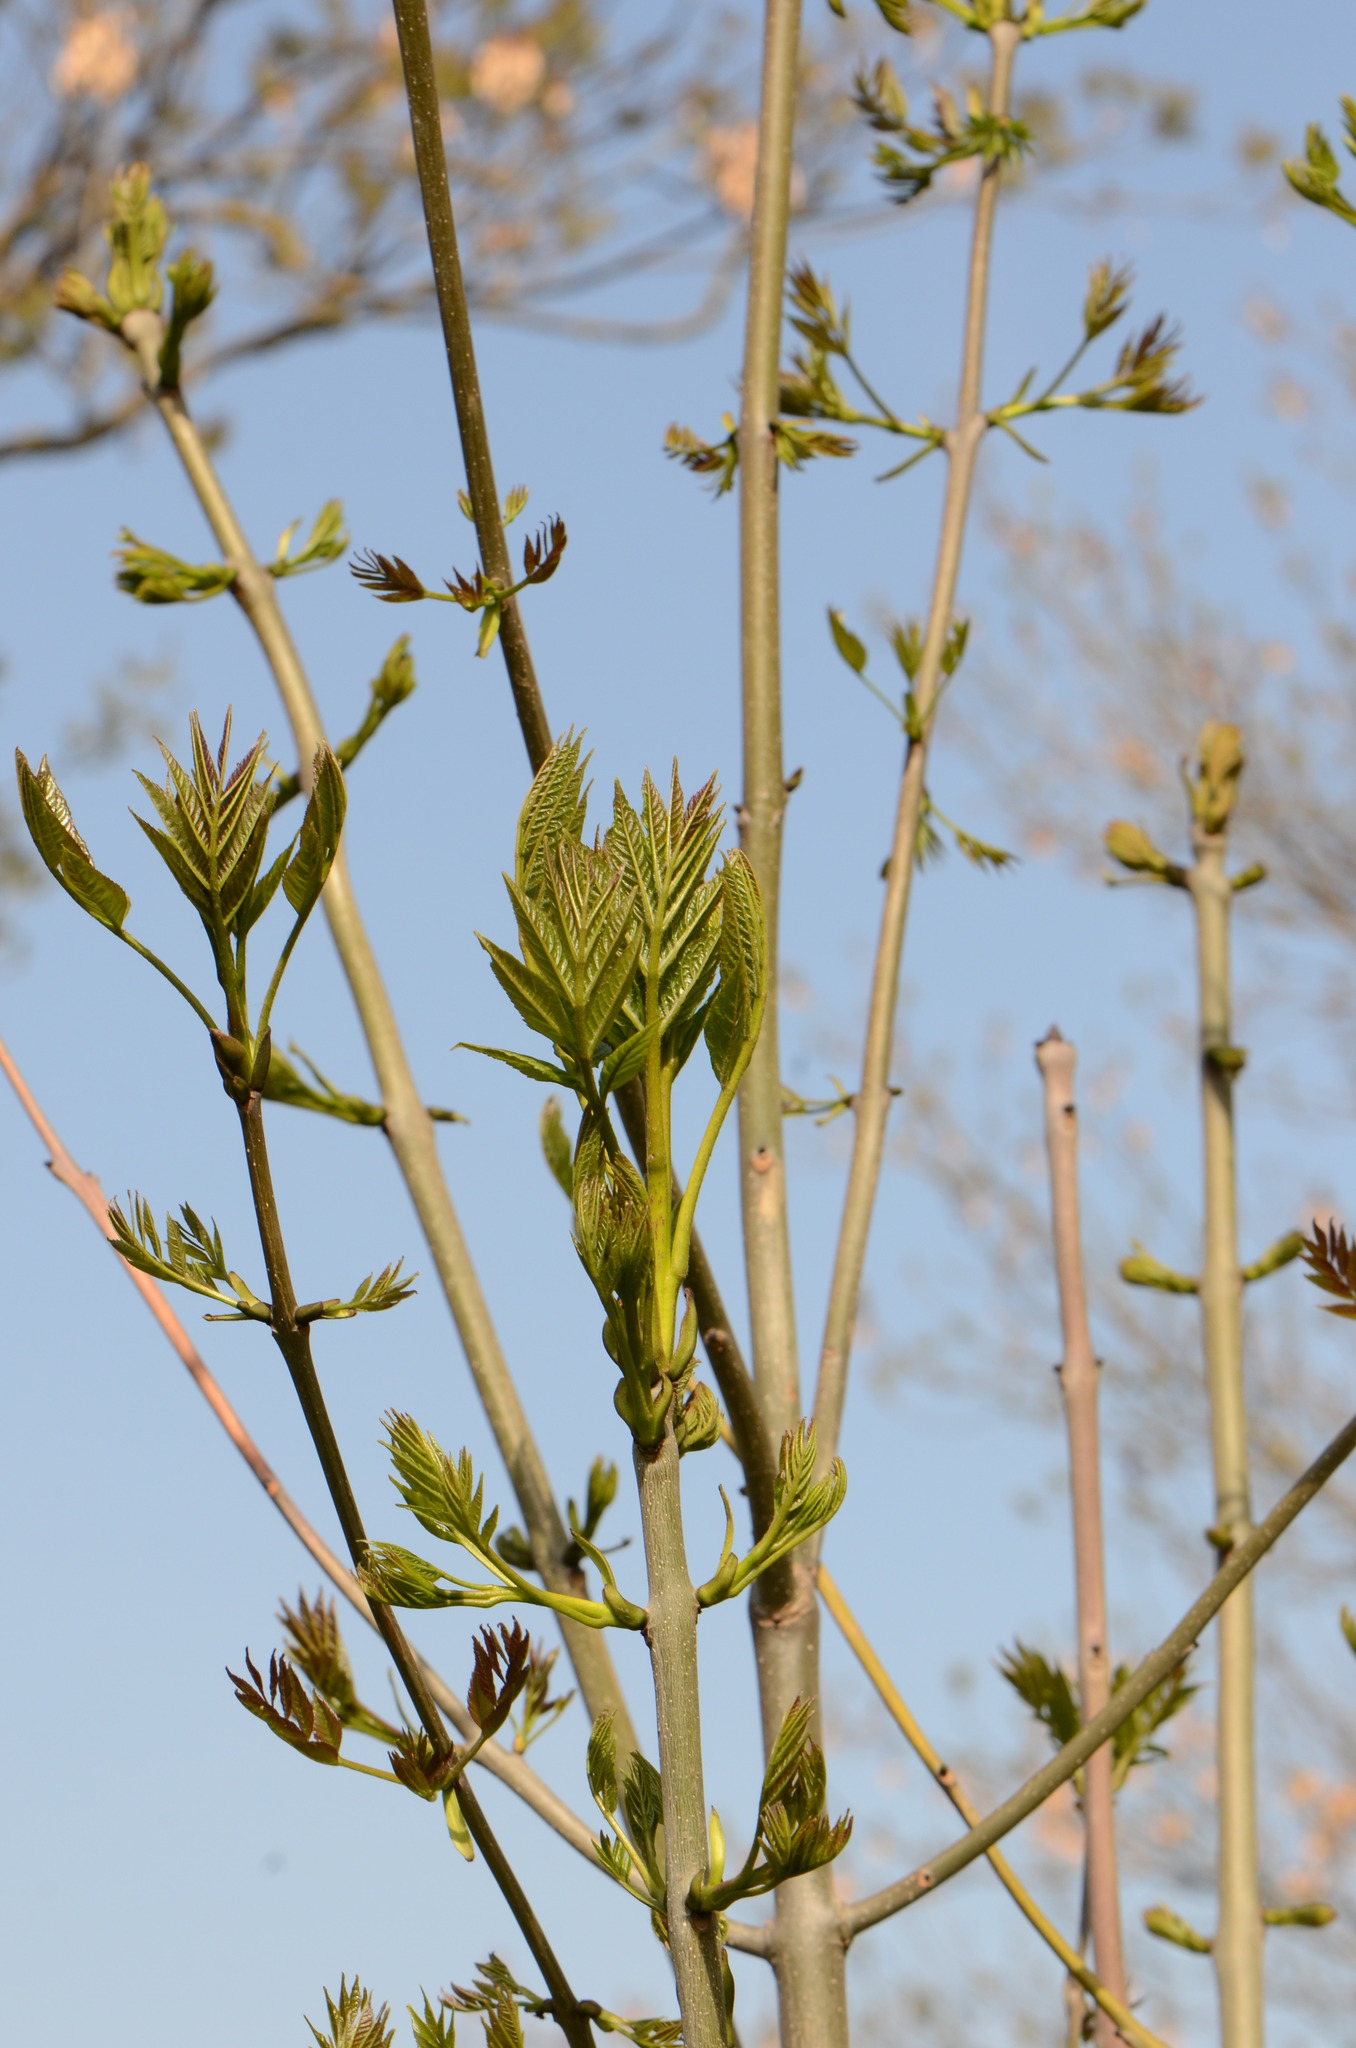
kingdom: Plantae
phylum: Tracheophyta
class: Magnoliopsida
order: Lamiales
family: Oleaceae
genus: Fraxinus
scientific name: Fraxinus excelsior
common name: European ash
